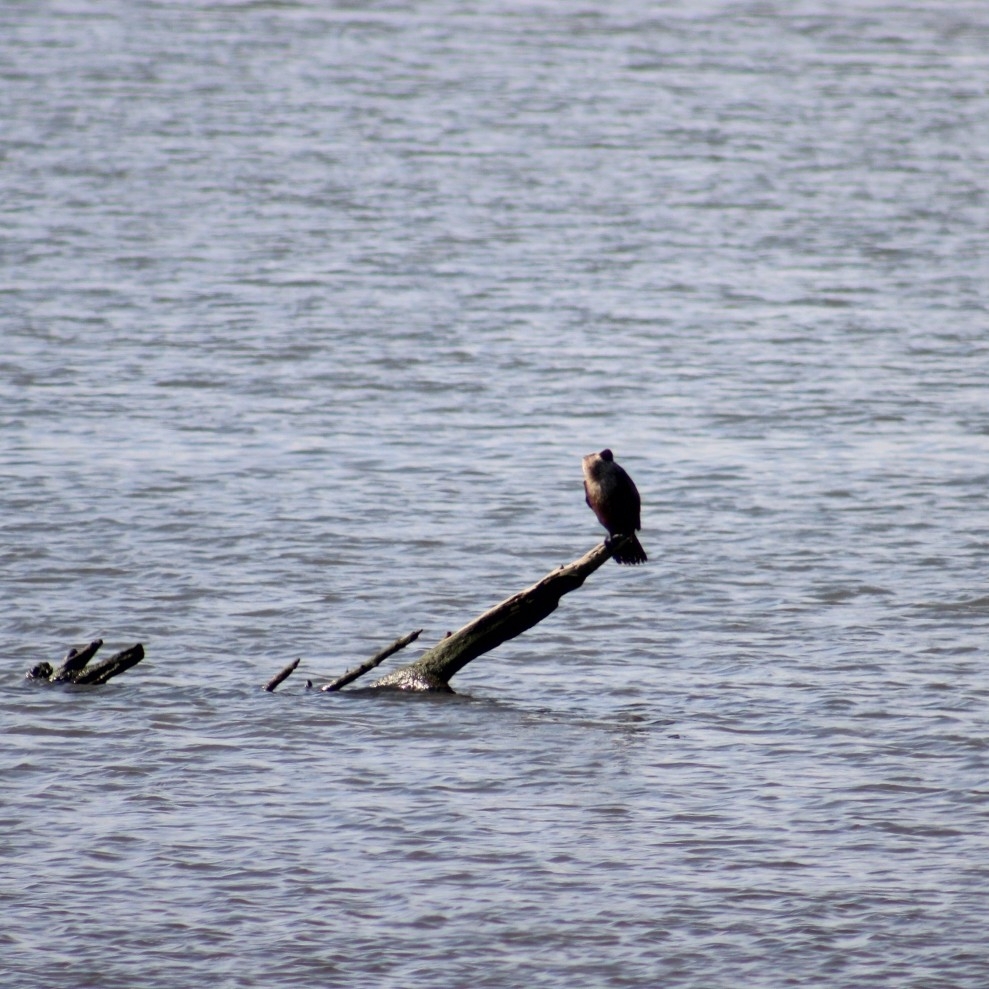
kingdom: Animalia
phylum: Chordata
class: Aves
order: Suliformes
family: Phalacrocoracidae
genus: Phalacrocorax
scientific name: Phalacrocorax brasilianus
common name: Neotropic cormorant
